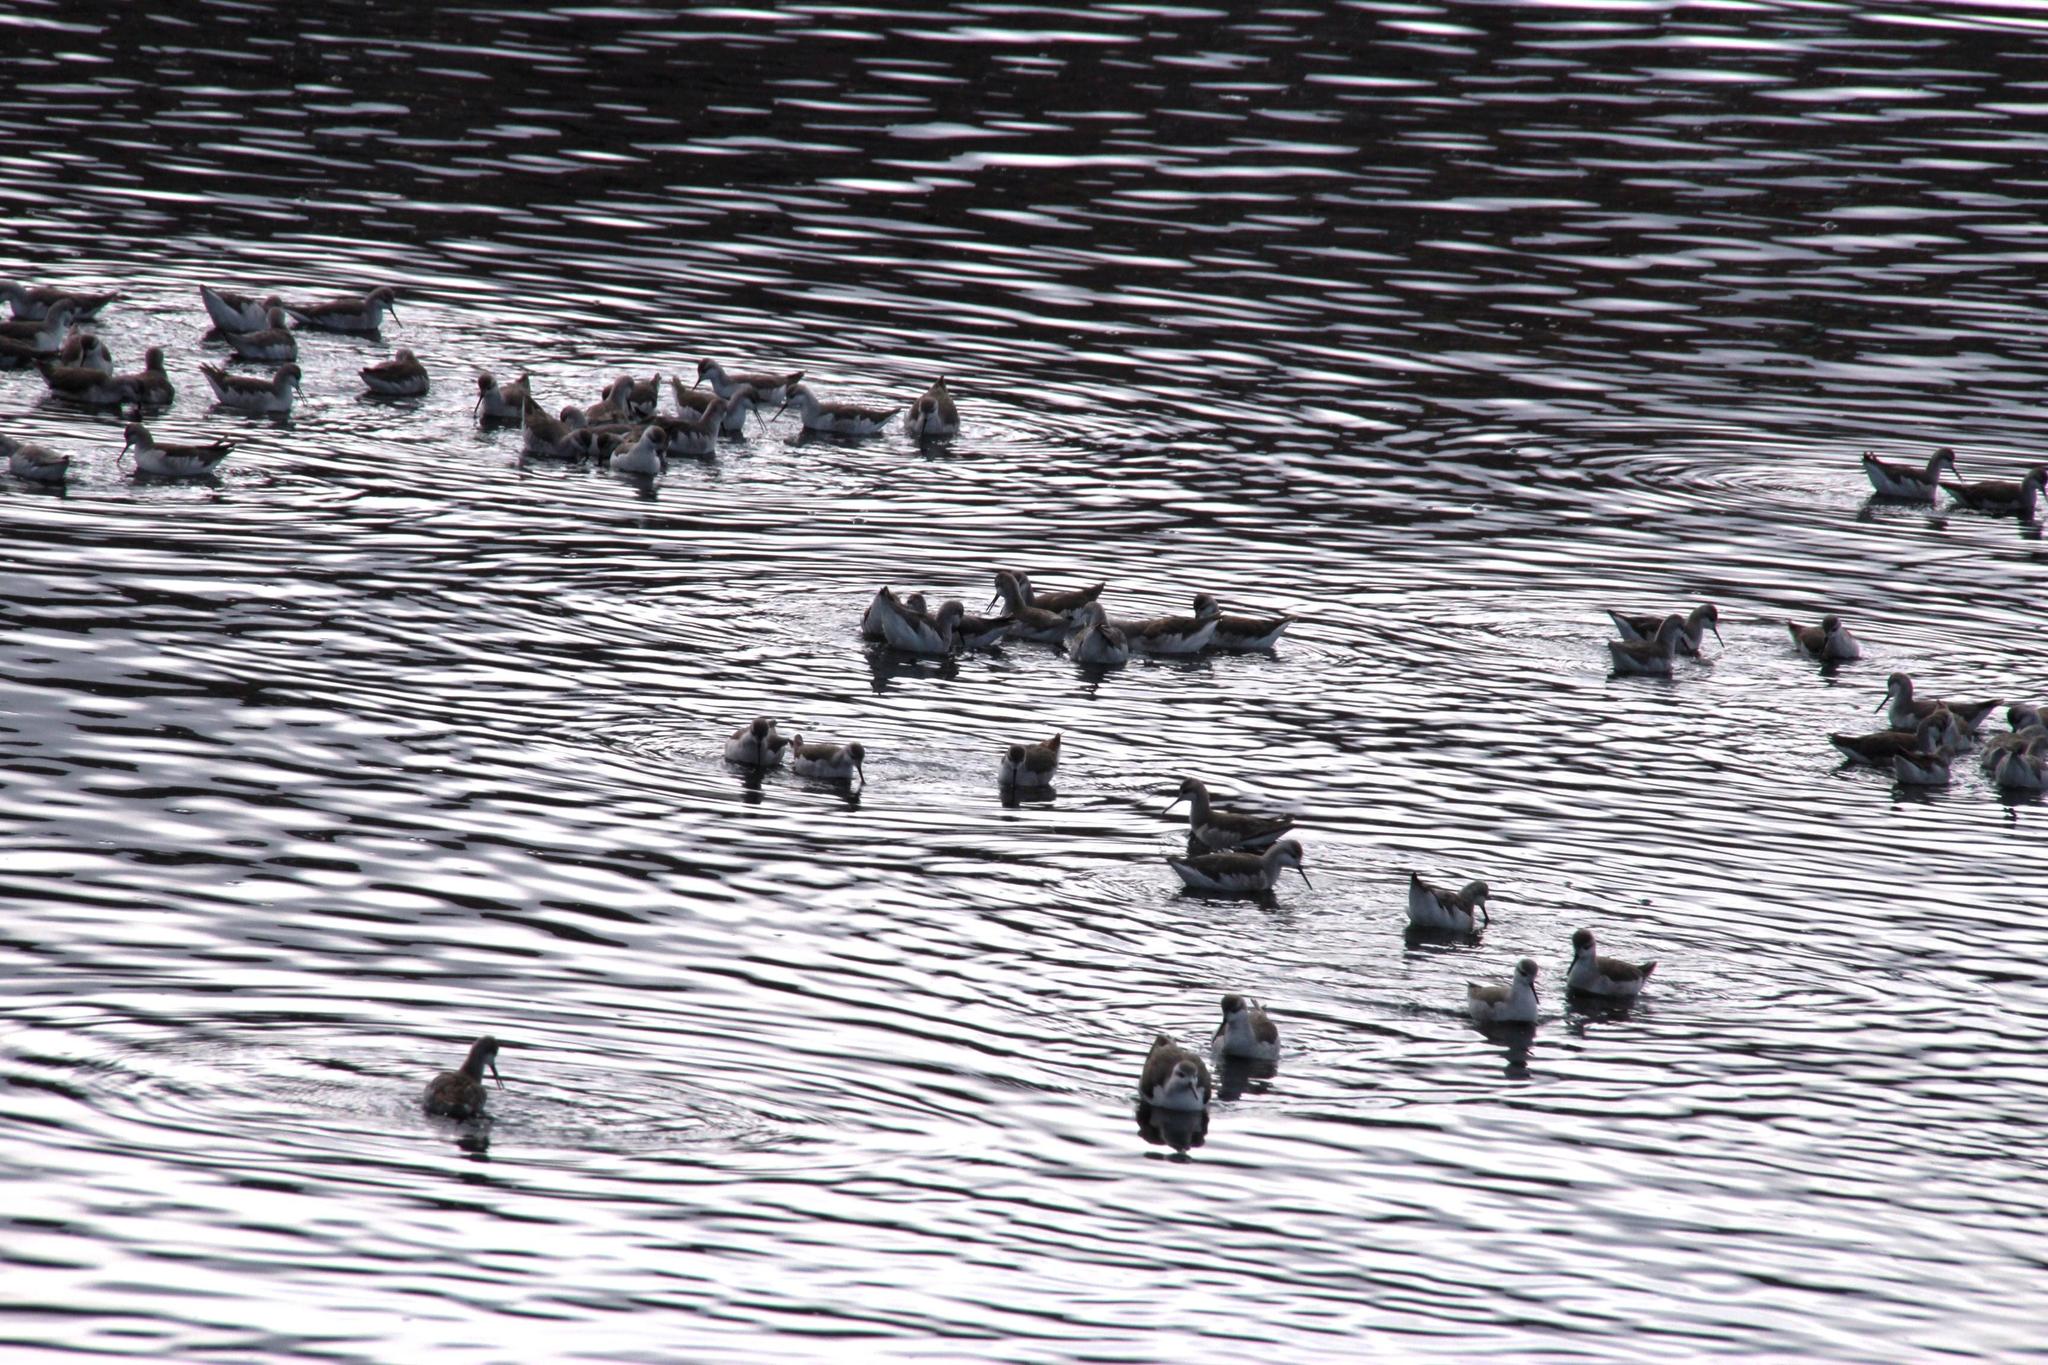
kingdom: Animalia
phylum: Chordata
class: Aves
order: Charadriiformes
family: Scolopacidae
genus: Phalaropus
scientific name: Phalaropus tricolor
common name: Wilson's phalarope
